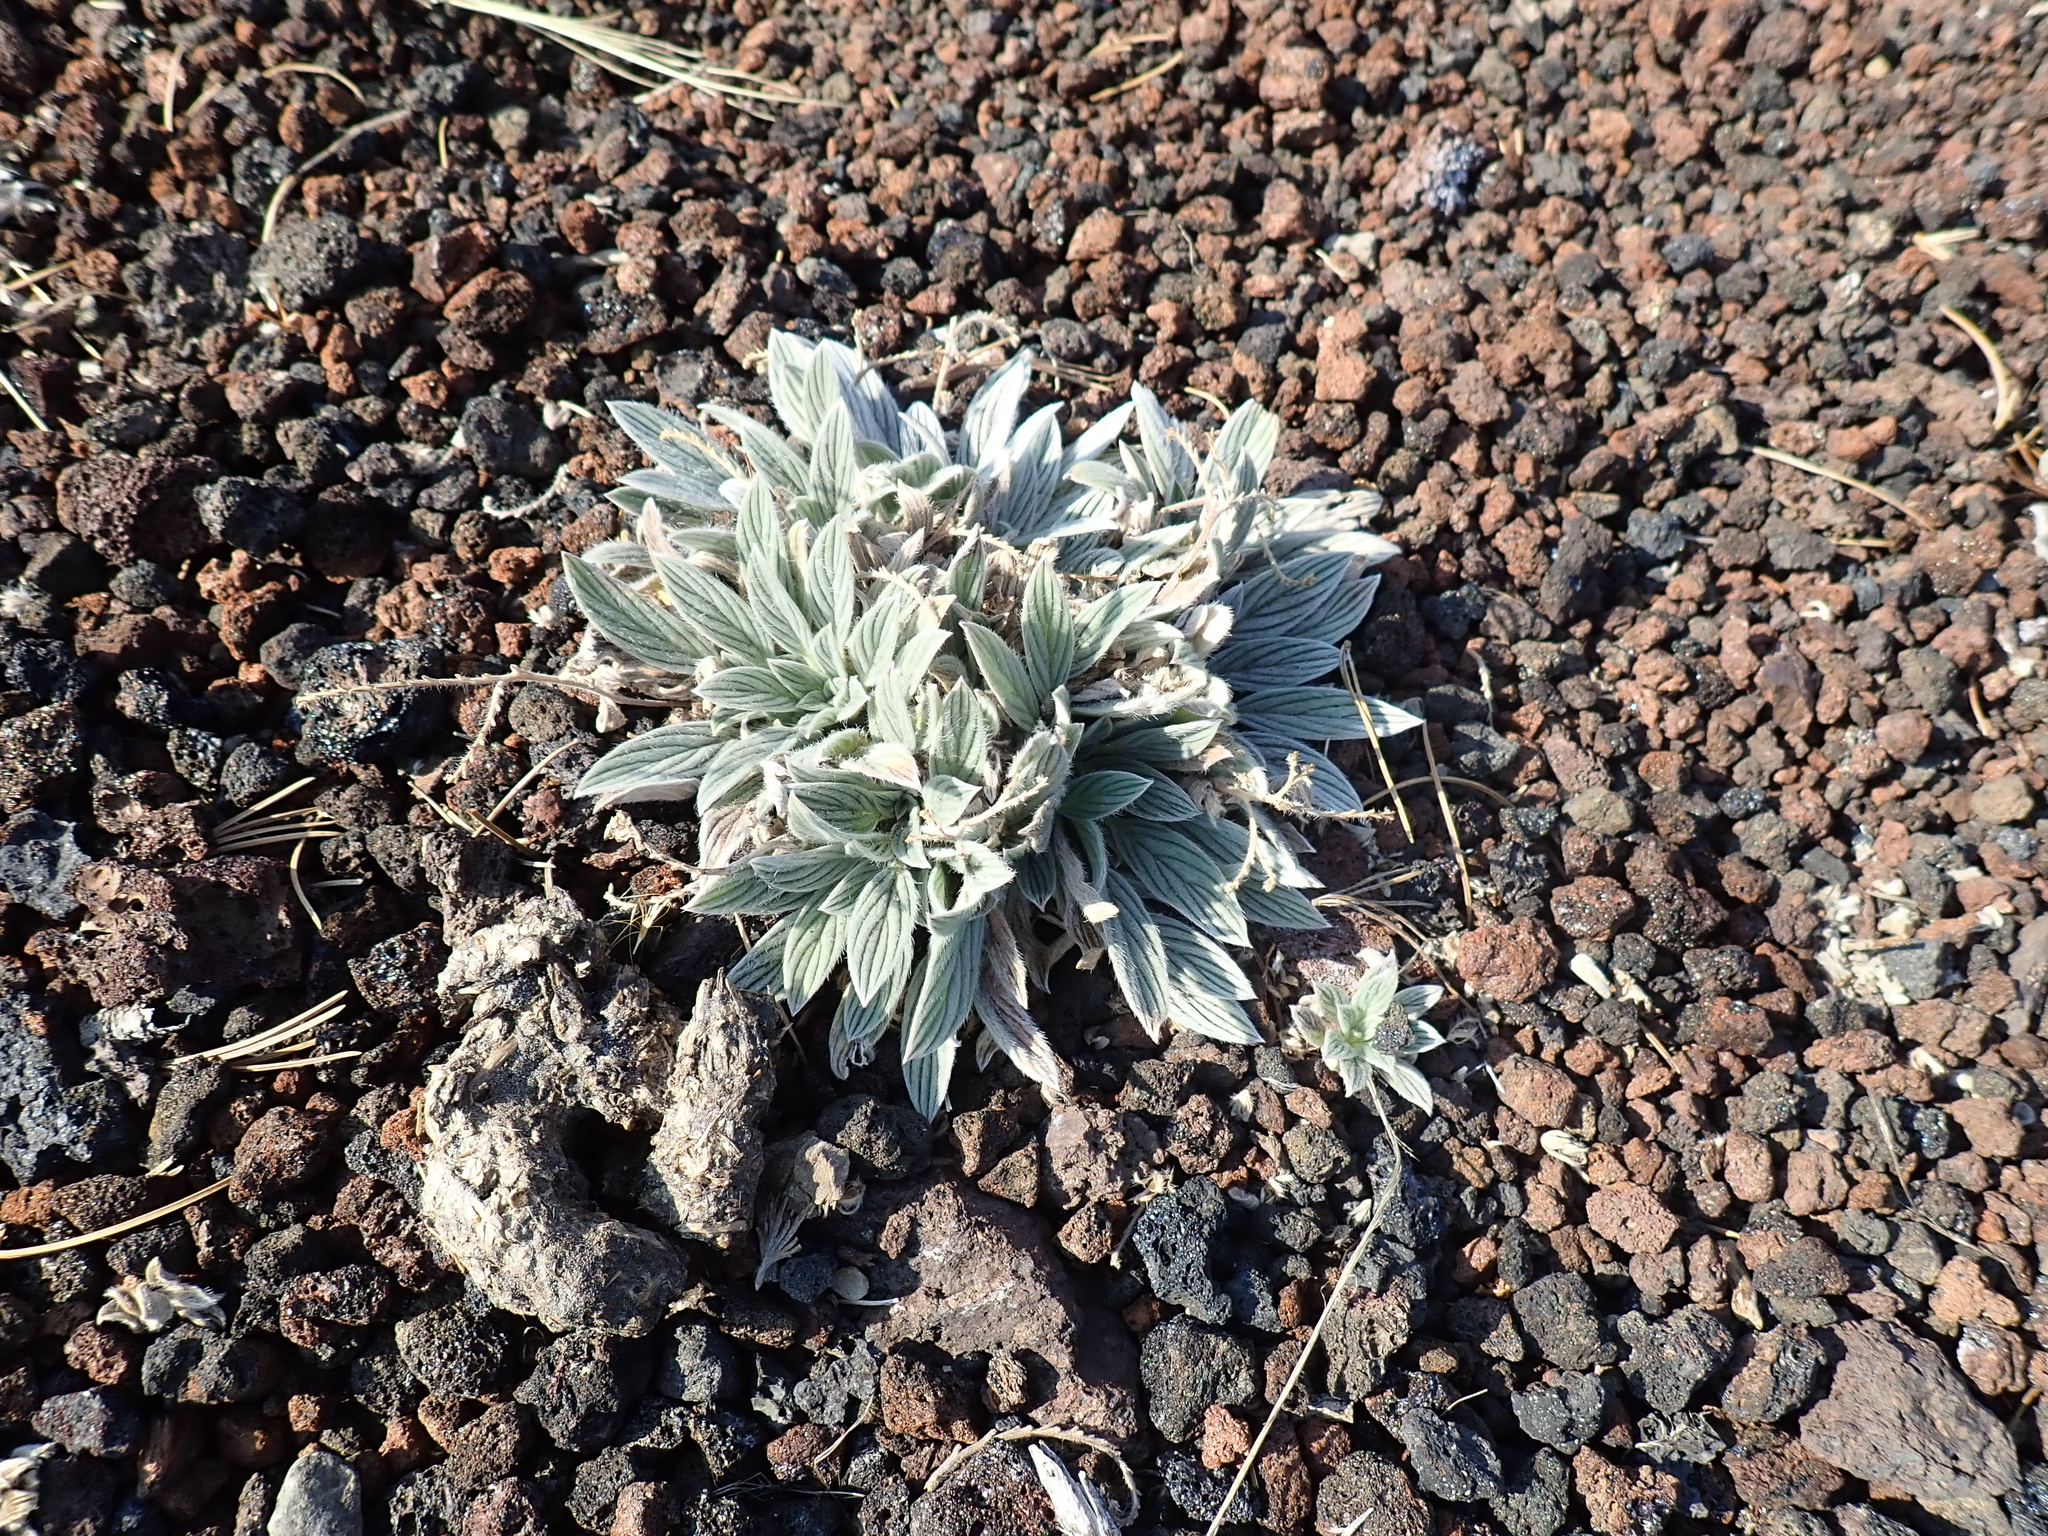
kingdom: Plantae
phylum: Tracheophyta
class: Magnoliopsida
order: Boraginales
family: Hydrophyllaceae
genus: Phacelia
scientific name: Phacelia hastata
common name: Silver-leaved phacelia
